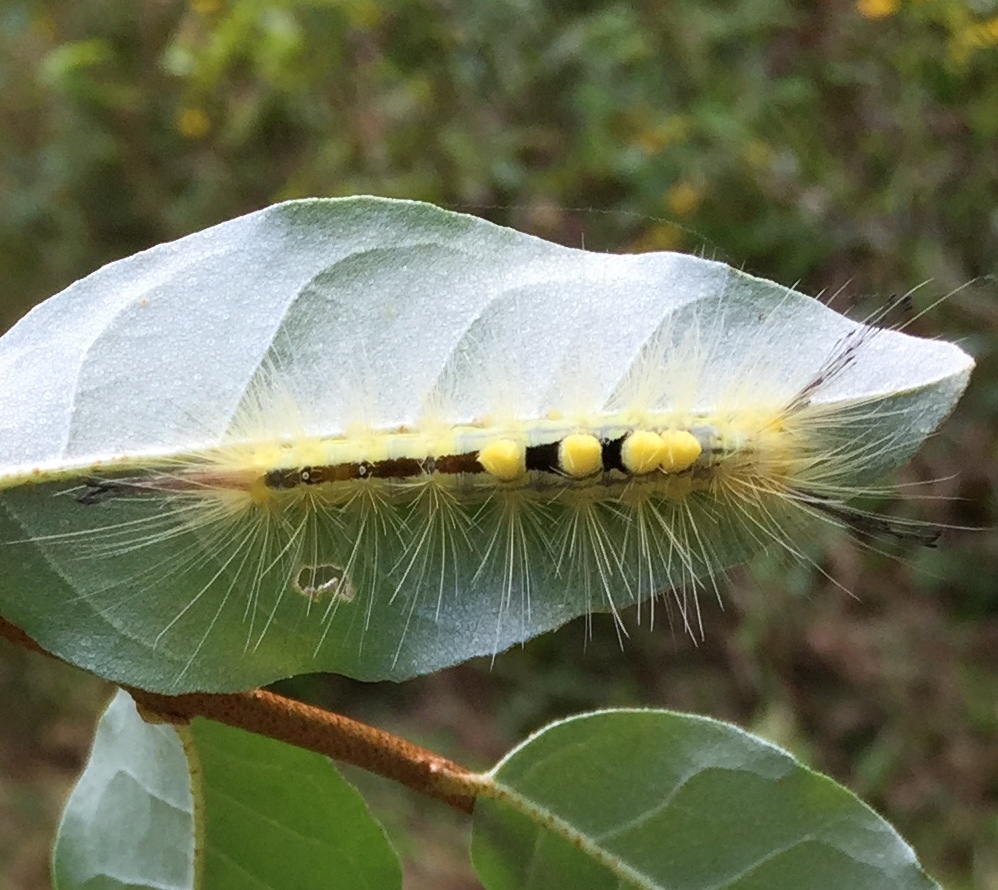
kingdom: Animalia
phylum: Arthropoda
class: Insecta
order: Lepidoptera
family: Erebidae
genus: Orgyia
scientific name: Orgyia definita
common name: Definite tussock moth
